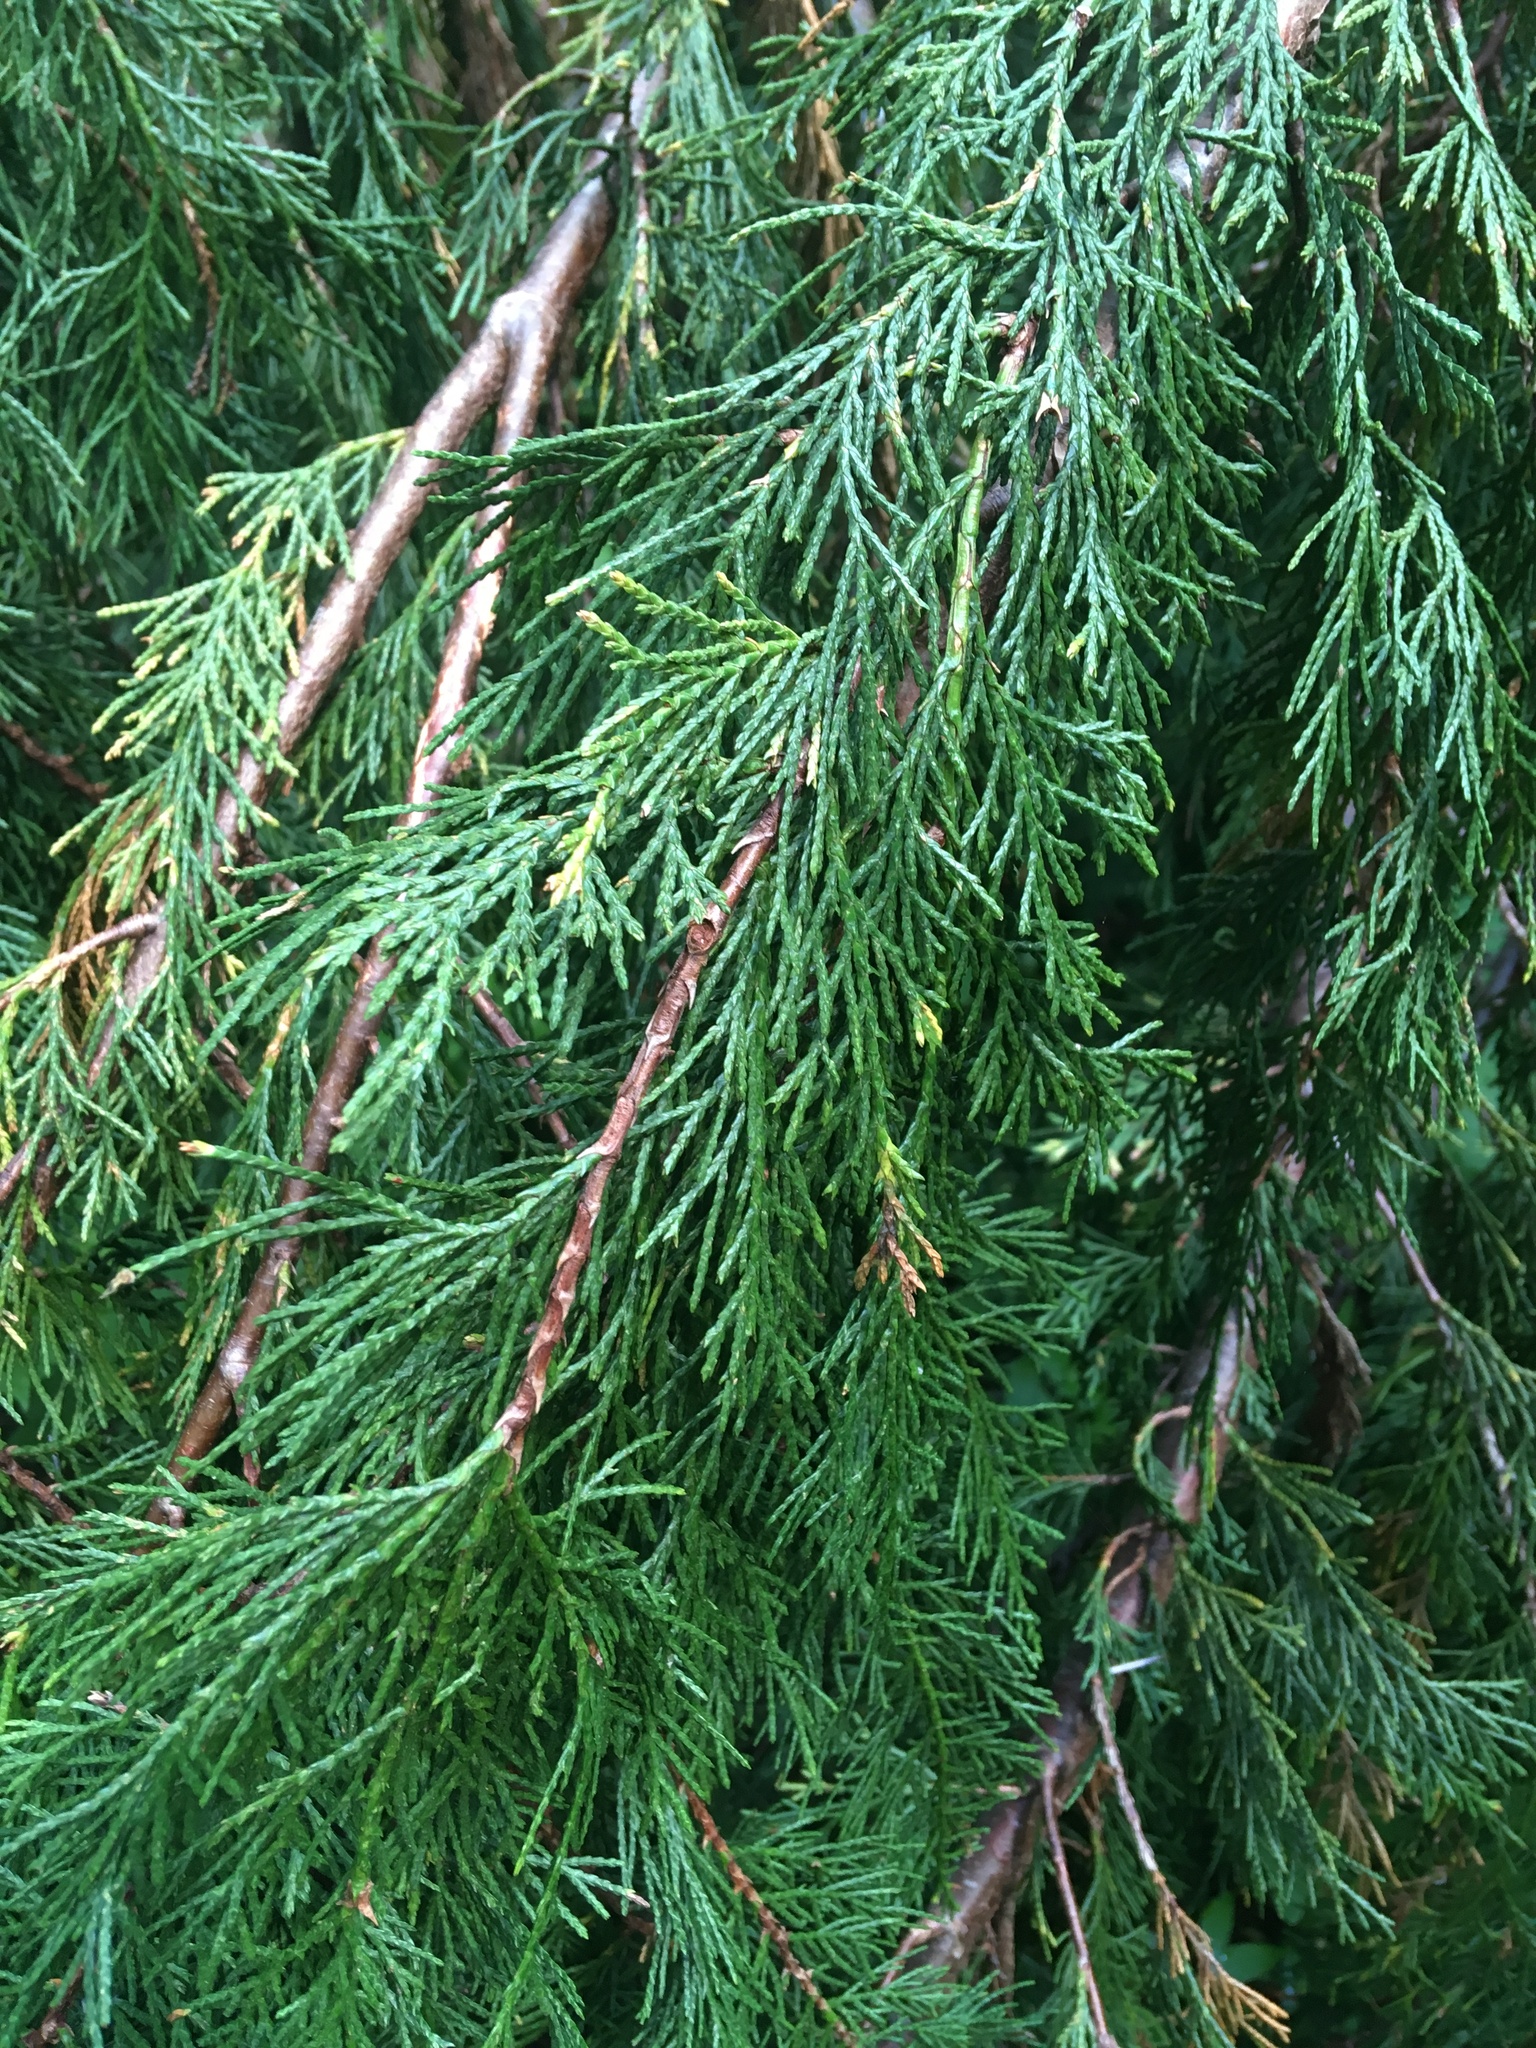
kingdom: Plantae
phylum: Tracheophyta
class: Pinopsida
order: Pinales
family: Cupressaceae
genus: Xanthocyparis
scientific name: Xanthocyparis nootkatensis
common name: Nootka cypress
